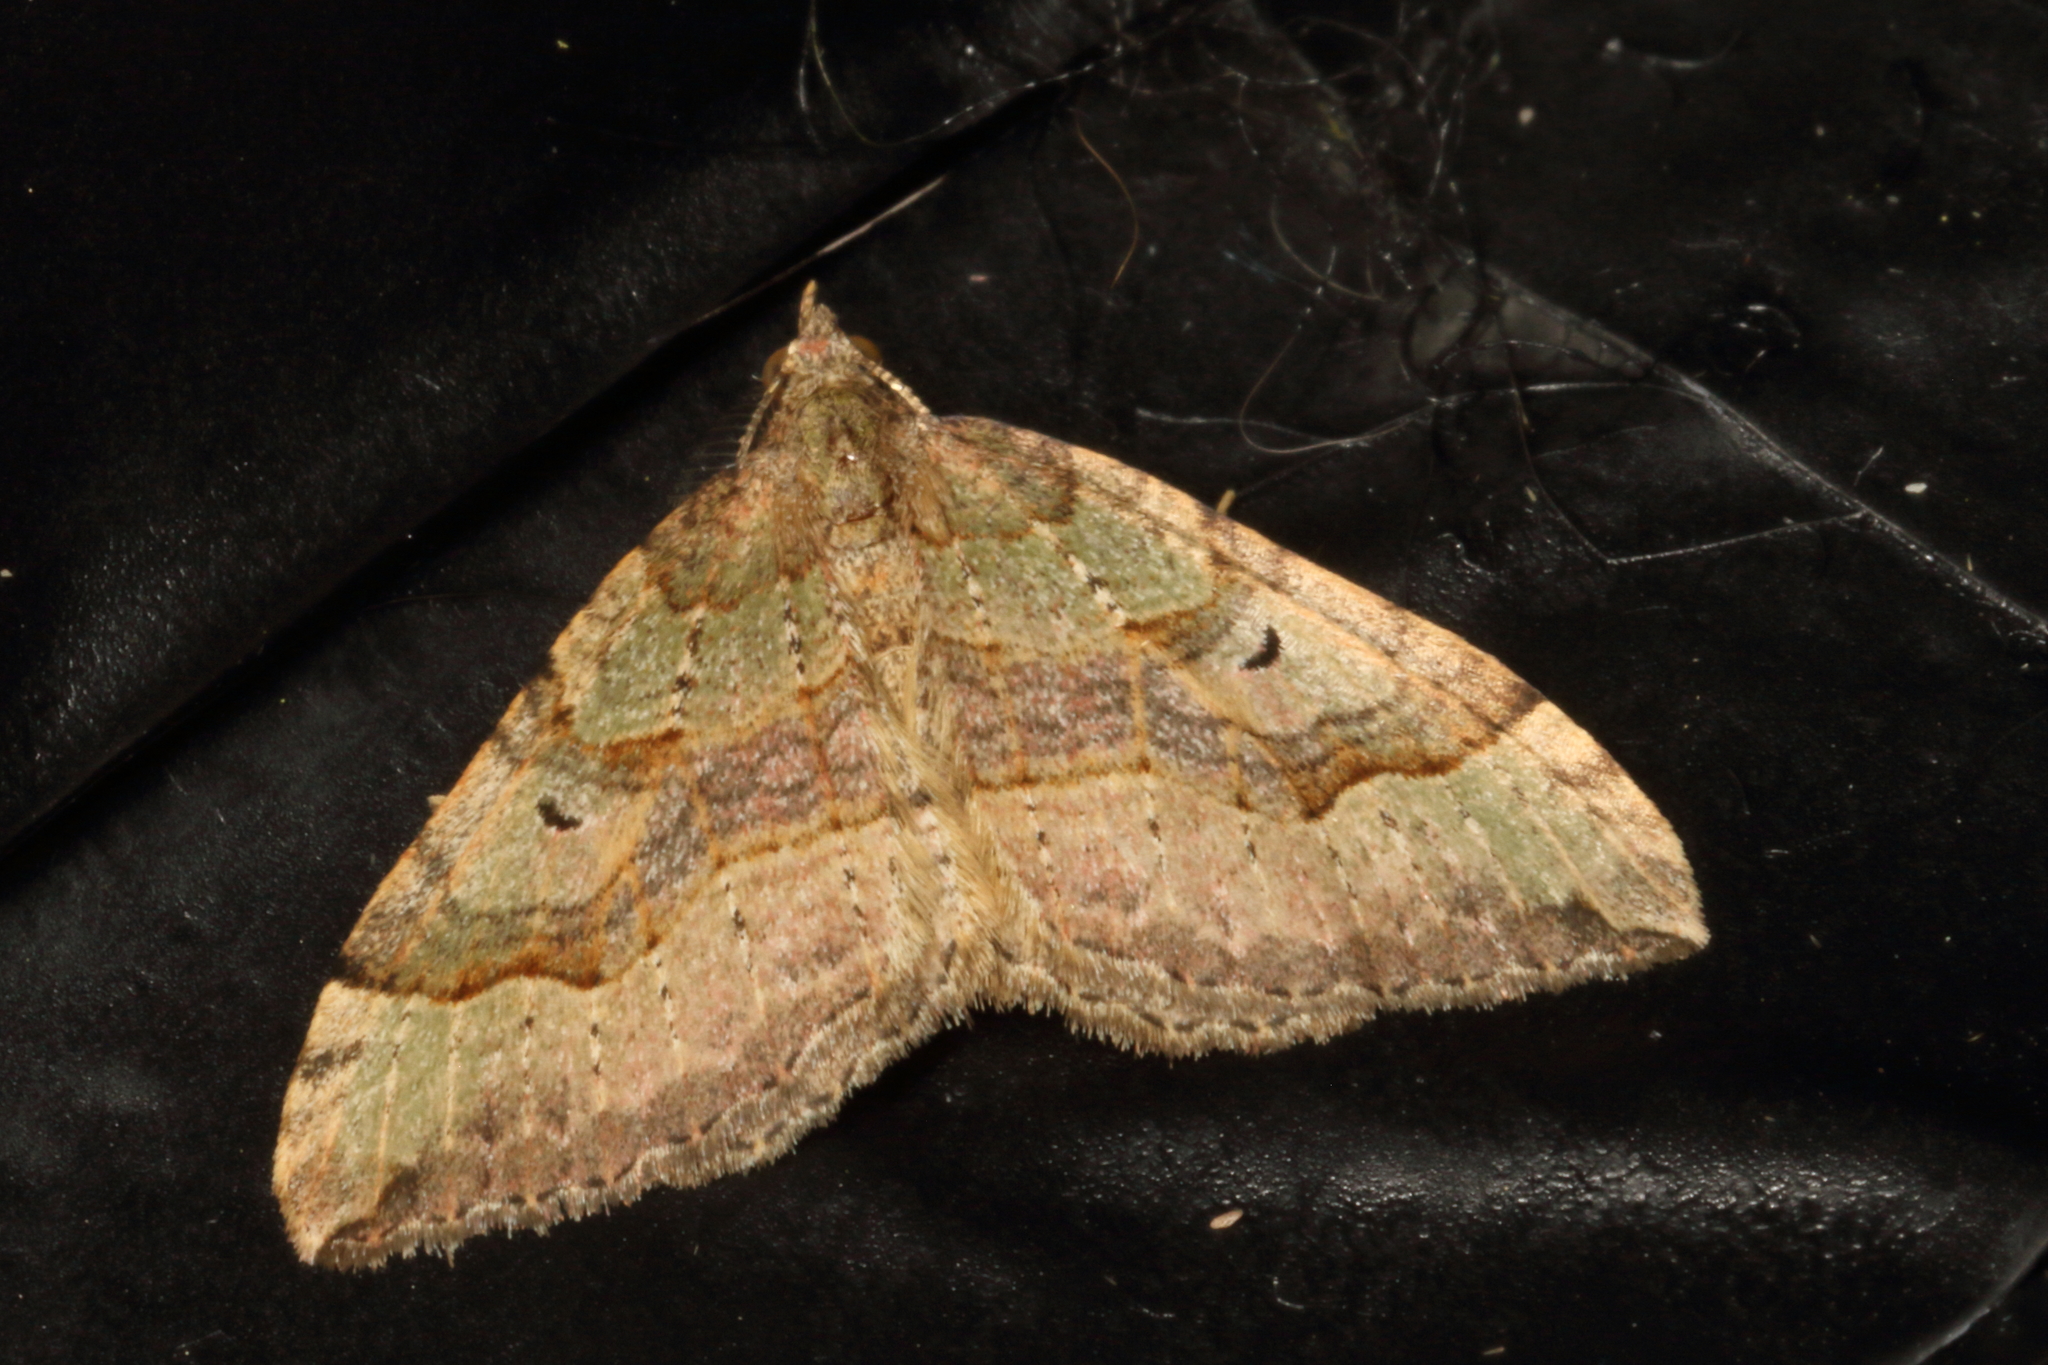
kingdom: Animalia
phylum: Arthropoda
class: Insecta
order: Lepidoptera
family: Geometridae
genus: Epyaxa
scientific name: Epyaxa rosearia
